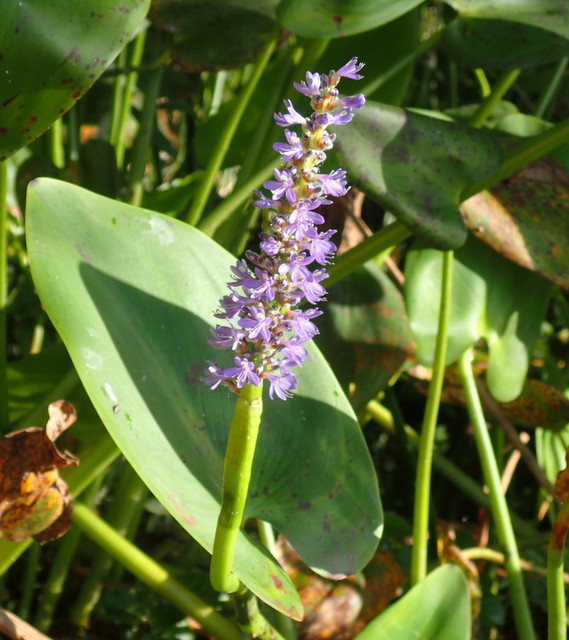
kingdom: Plantae
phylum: Tracheophyta
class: Liliopsida
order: Commelinales
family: Pontederiaceae
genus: Pontederia
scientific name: Pontederia cordata
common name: Pickerelweed
